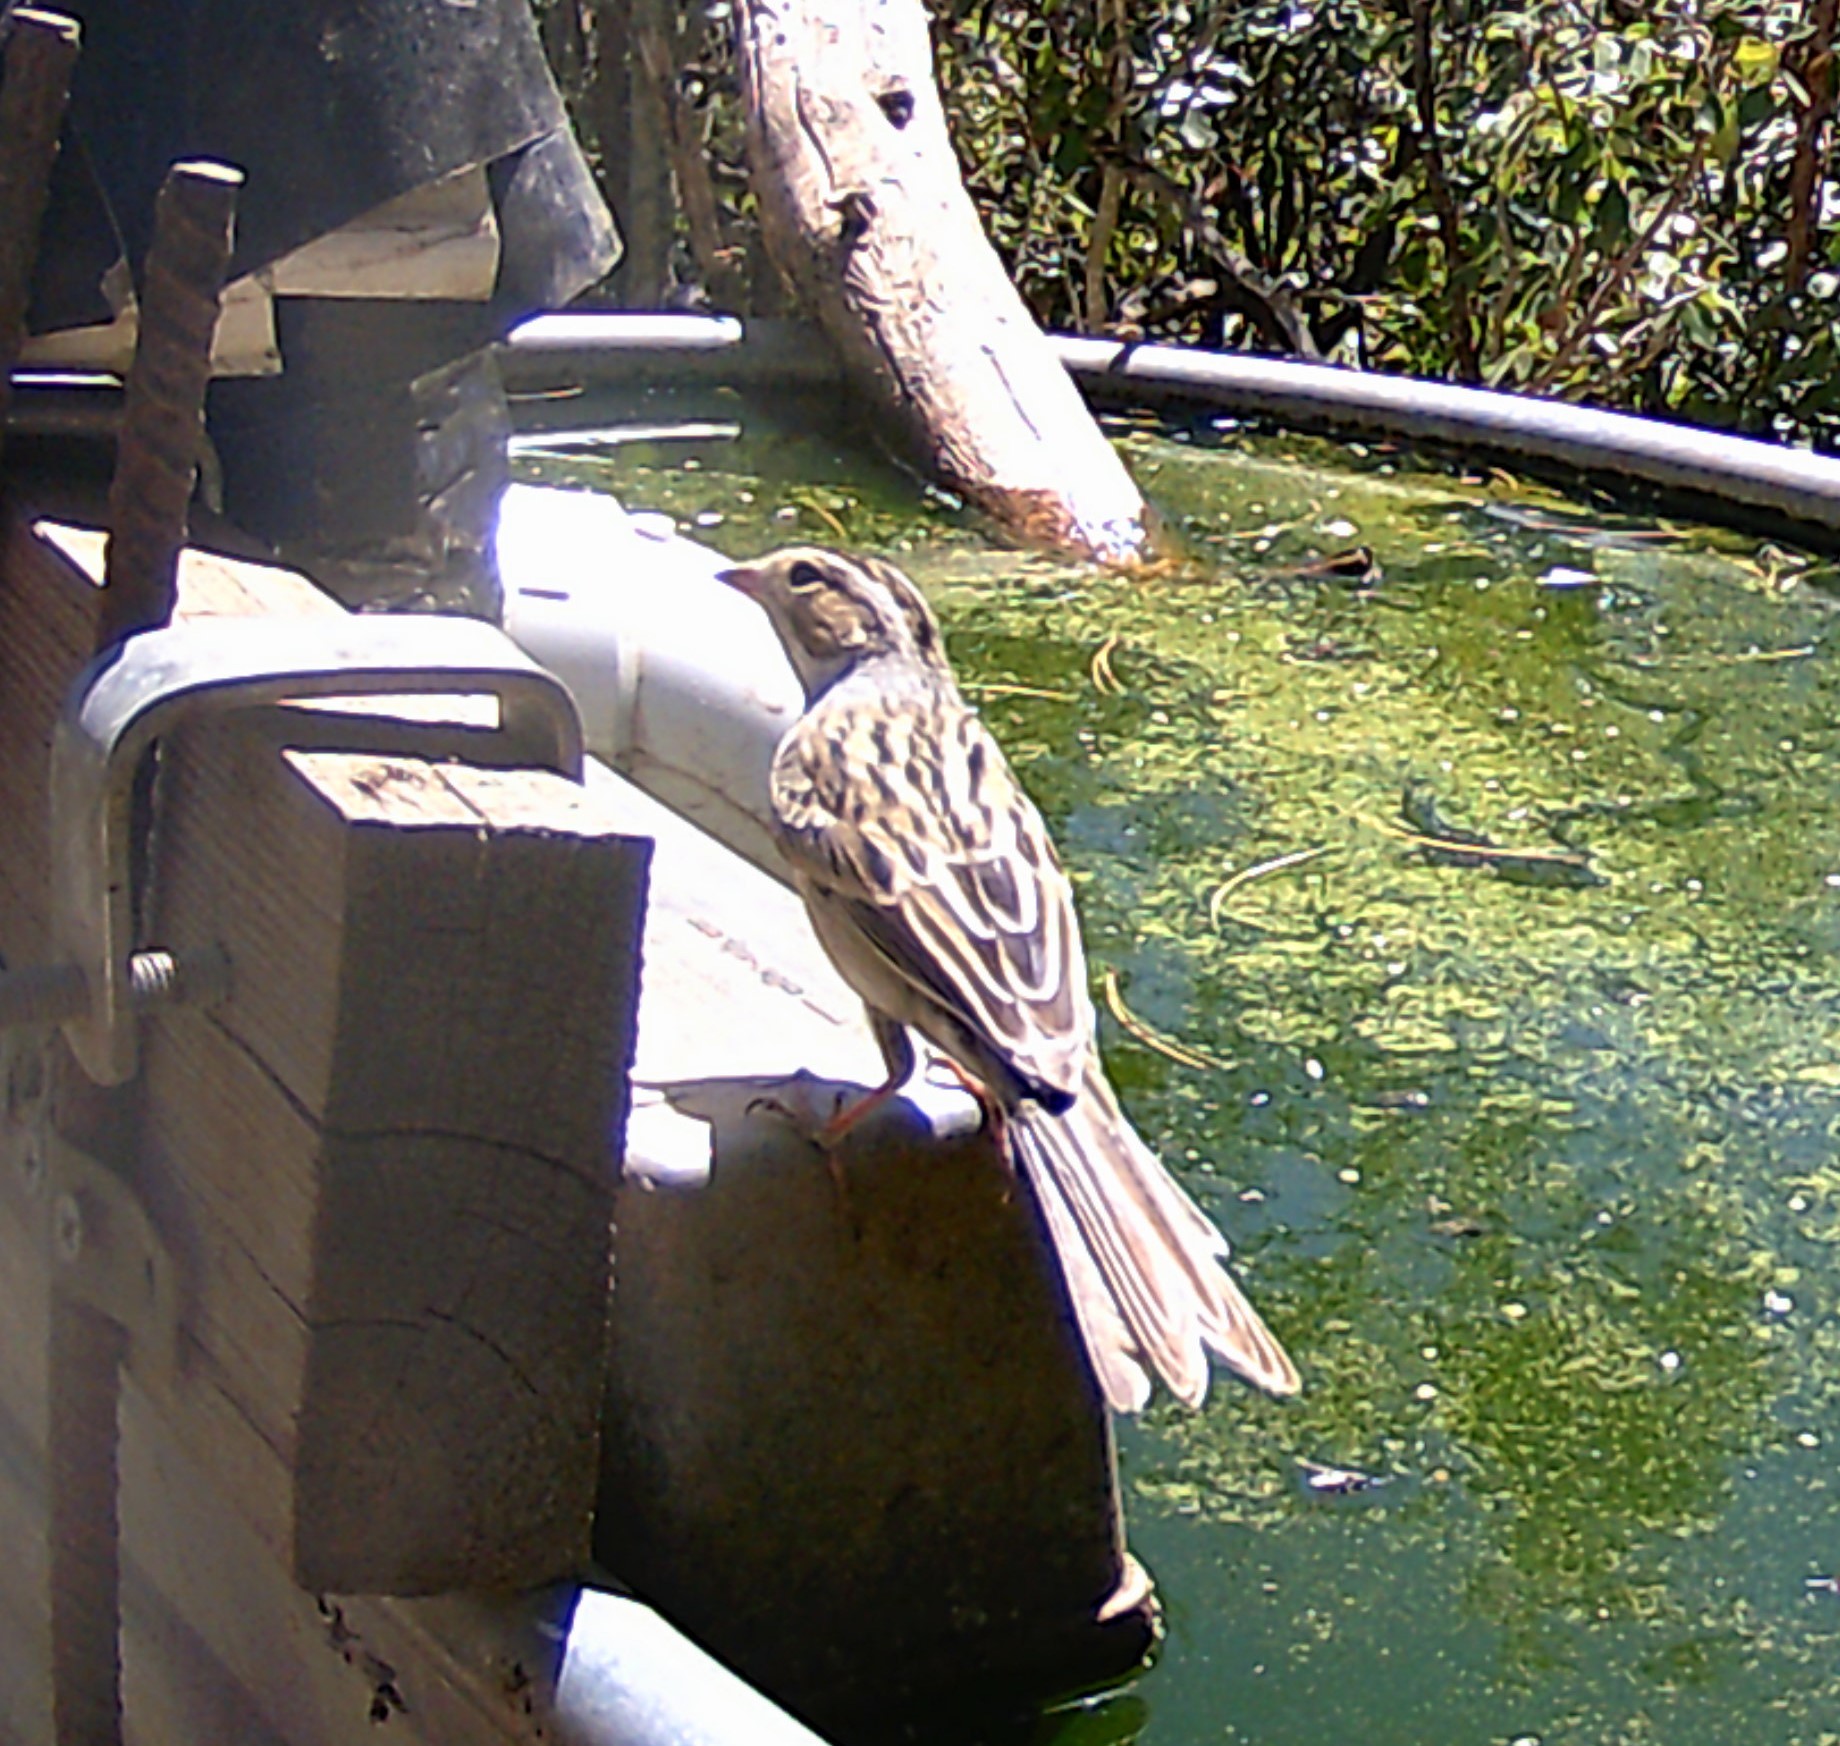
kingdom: Animalia
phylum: Chordata
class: Aves
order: Passeriformes
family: Passerellidae
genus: Spizella
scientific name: Spizella pallida
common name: Clay-colored sparrow
